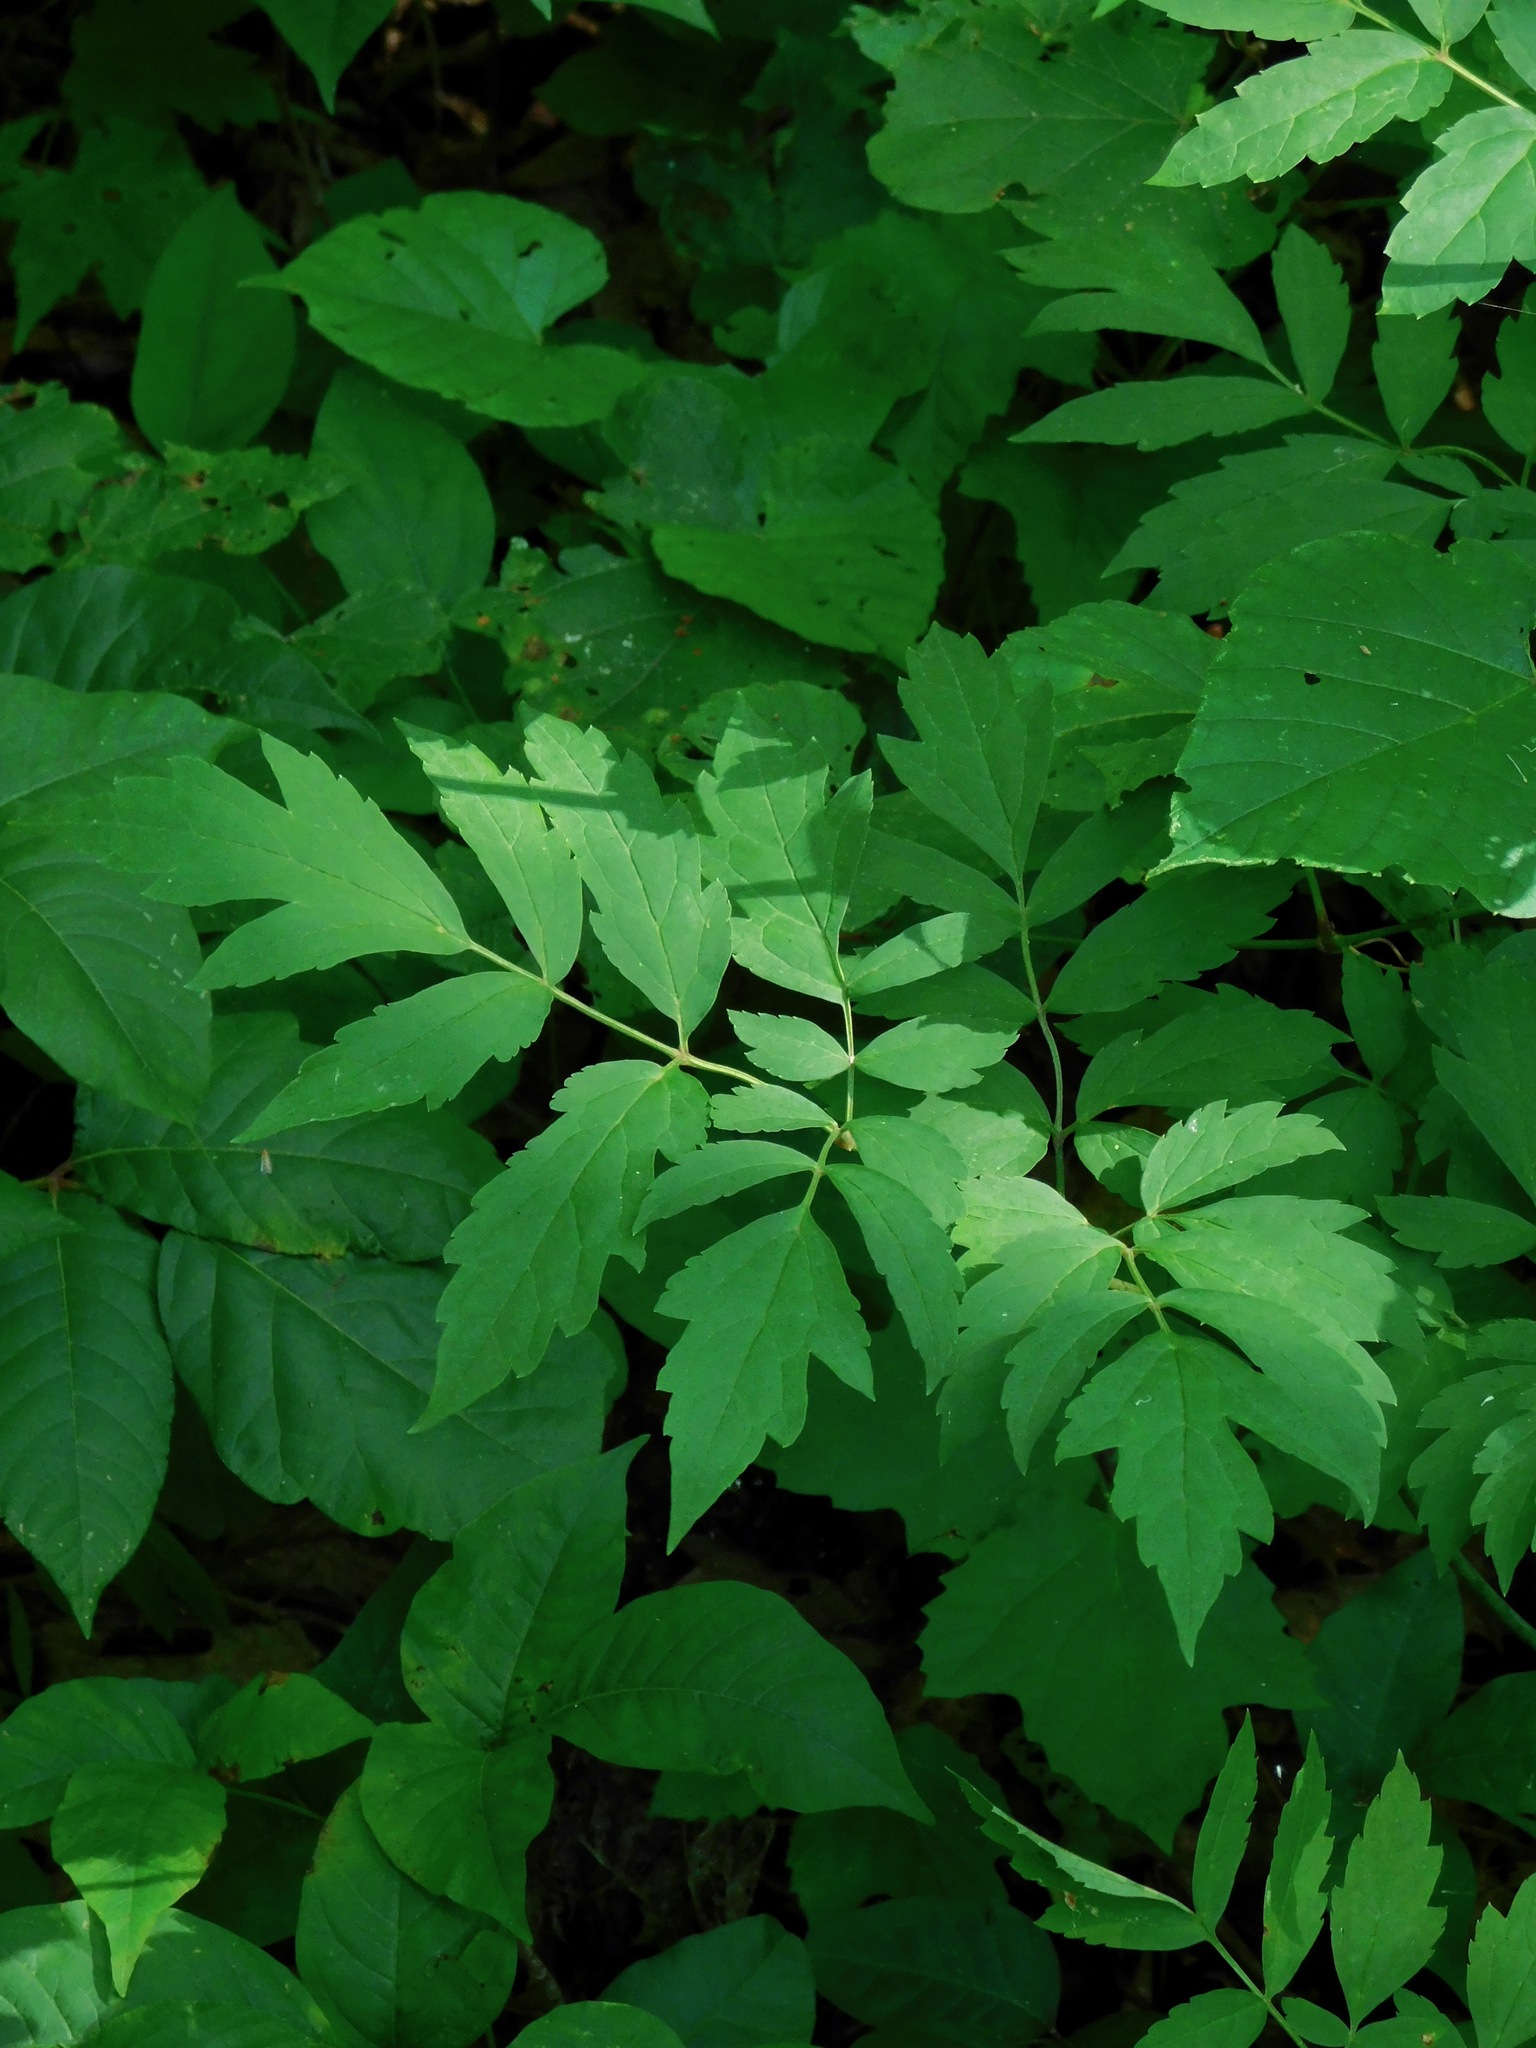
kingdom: Plantae
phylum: Tracheophyta
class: Magnoliopsida
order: Ranunculales
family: Ranunculaceae
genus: Actaea
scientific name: Actaea racemosa
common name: Black cohosh
